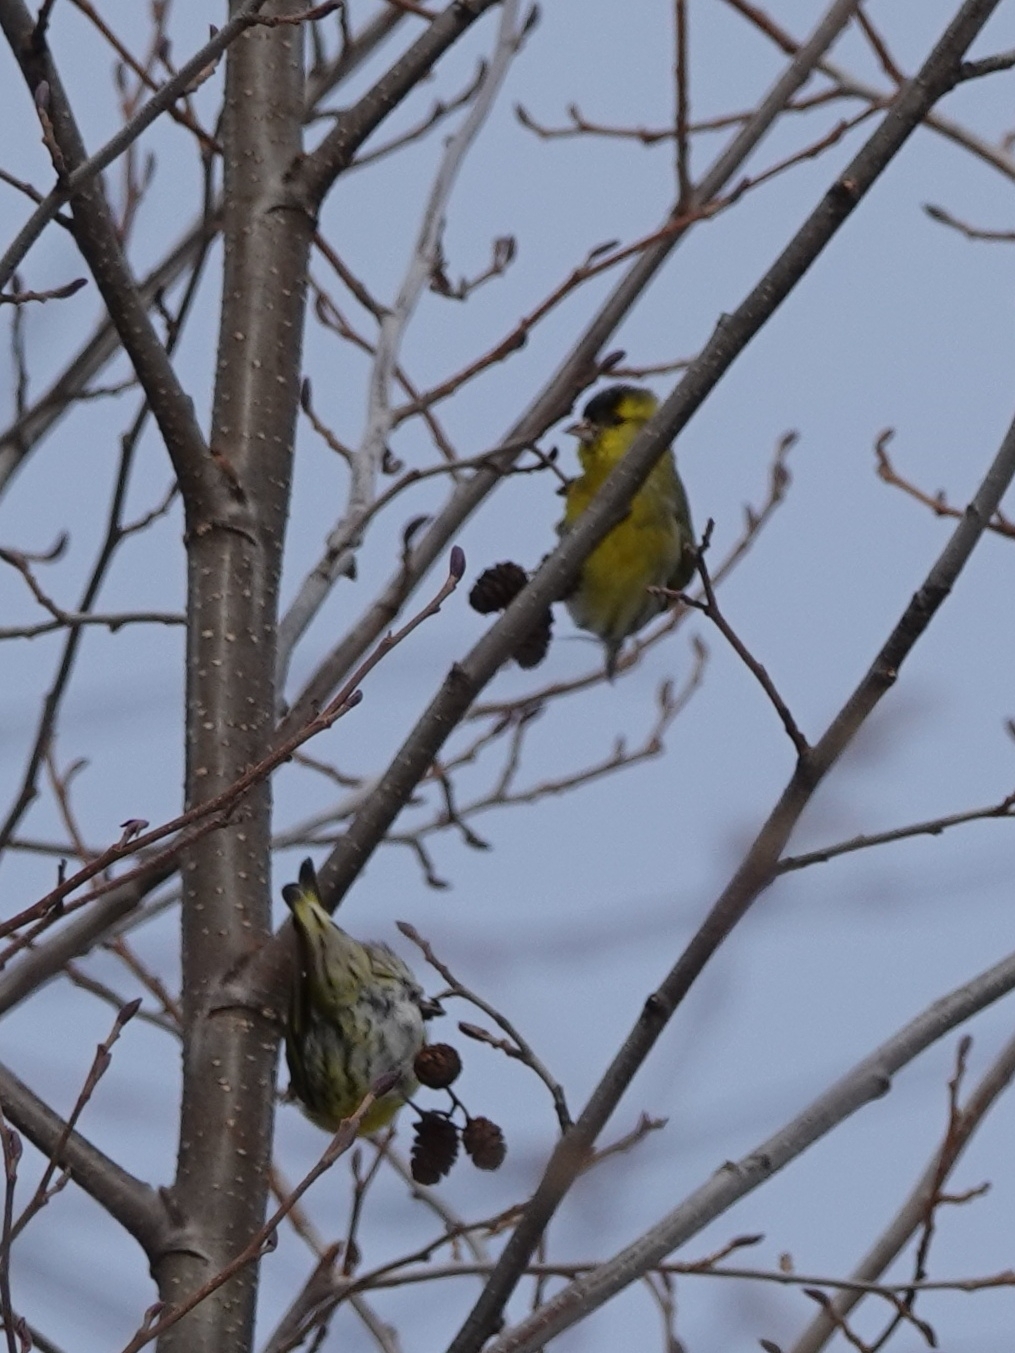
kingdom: Animalia
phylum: Chordata
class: Aves
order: Passeriformes
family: Fringillidae
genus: Spinus
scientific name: Spinus spinus
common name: Eurasian siskin
